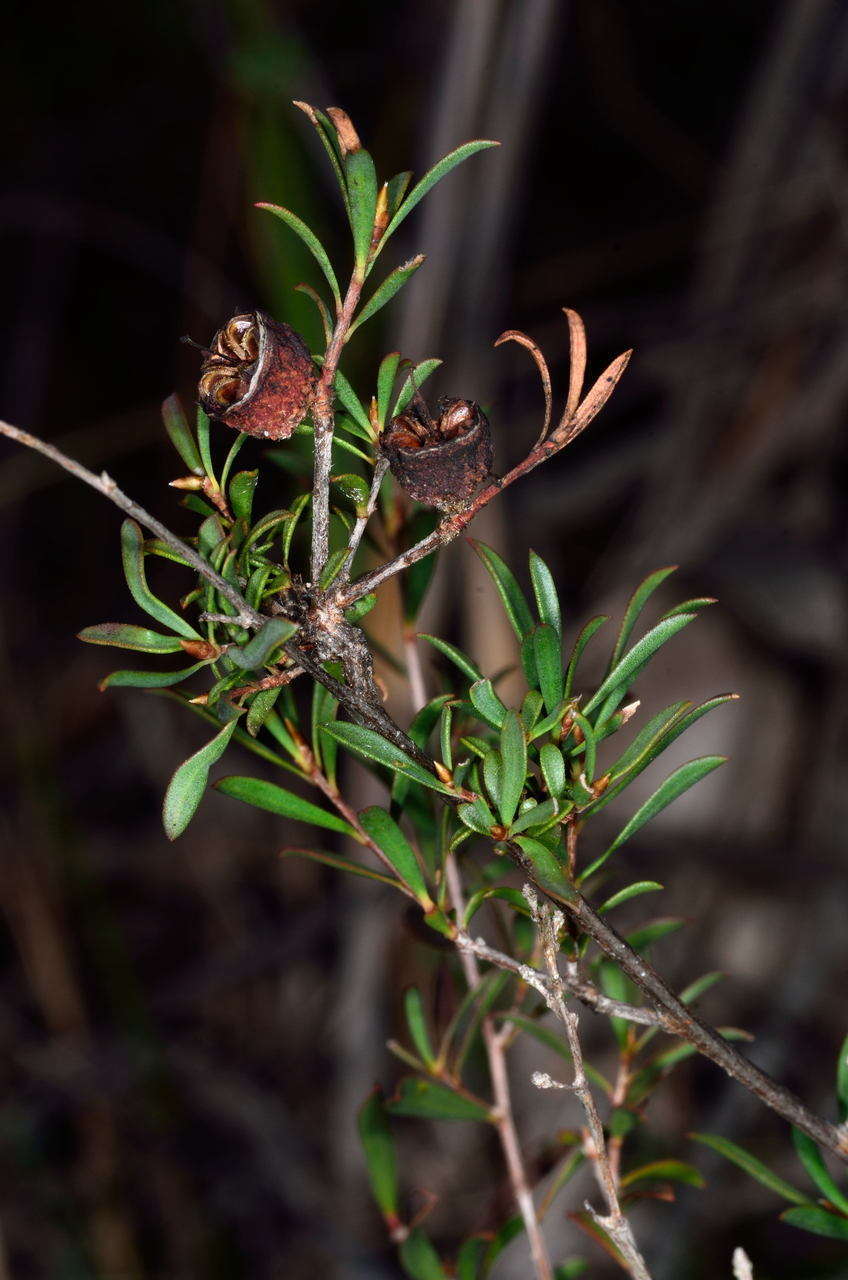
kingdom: Plantae
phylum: Tracheophyta
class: Magnoliopsida
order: Myrtales
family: Myrtaceae
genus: Leptospermum
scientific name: Leptospermum myrsinoides
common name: Heath teatree
